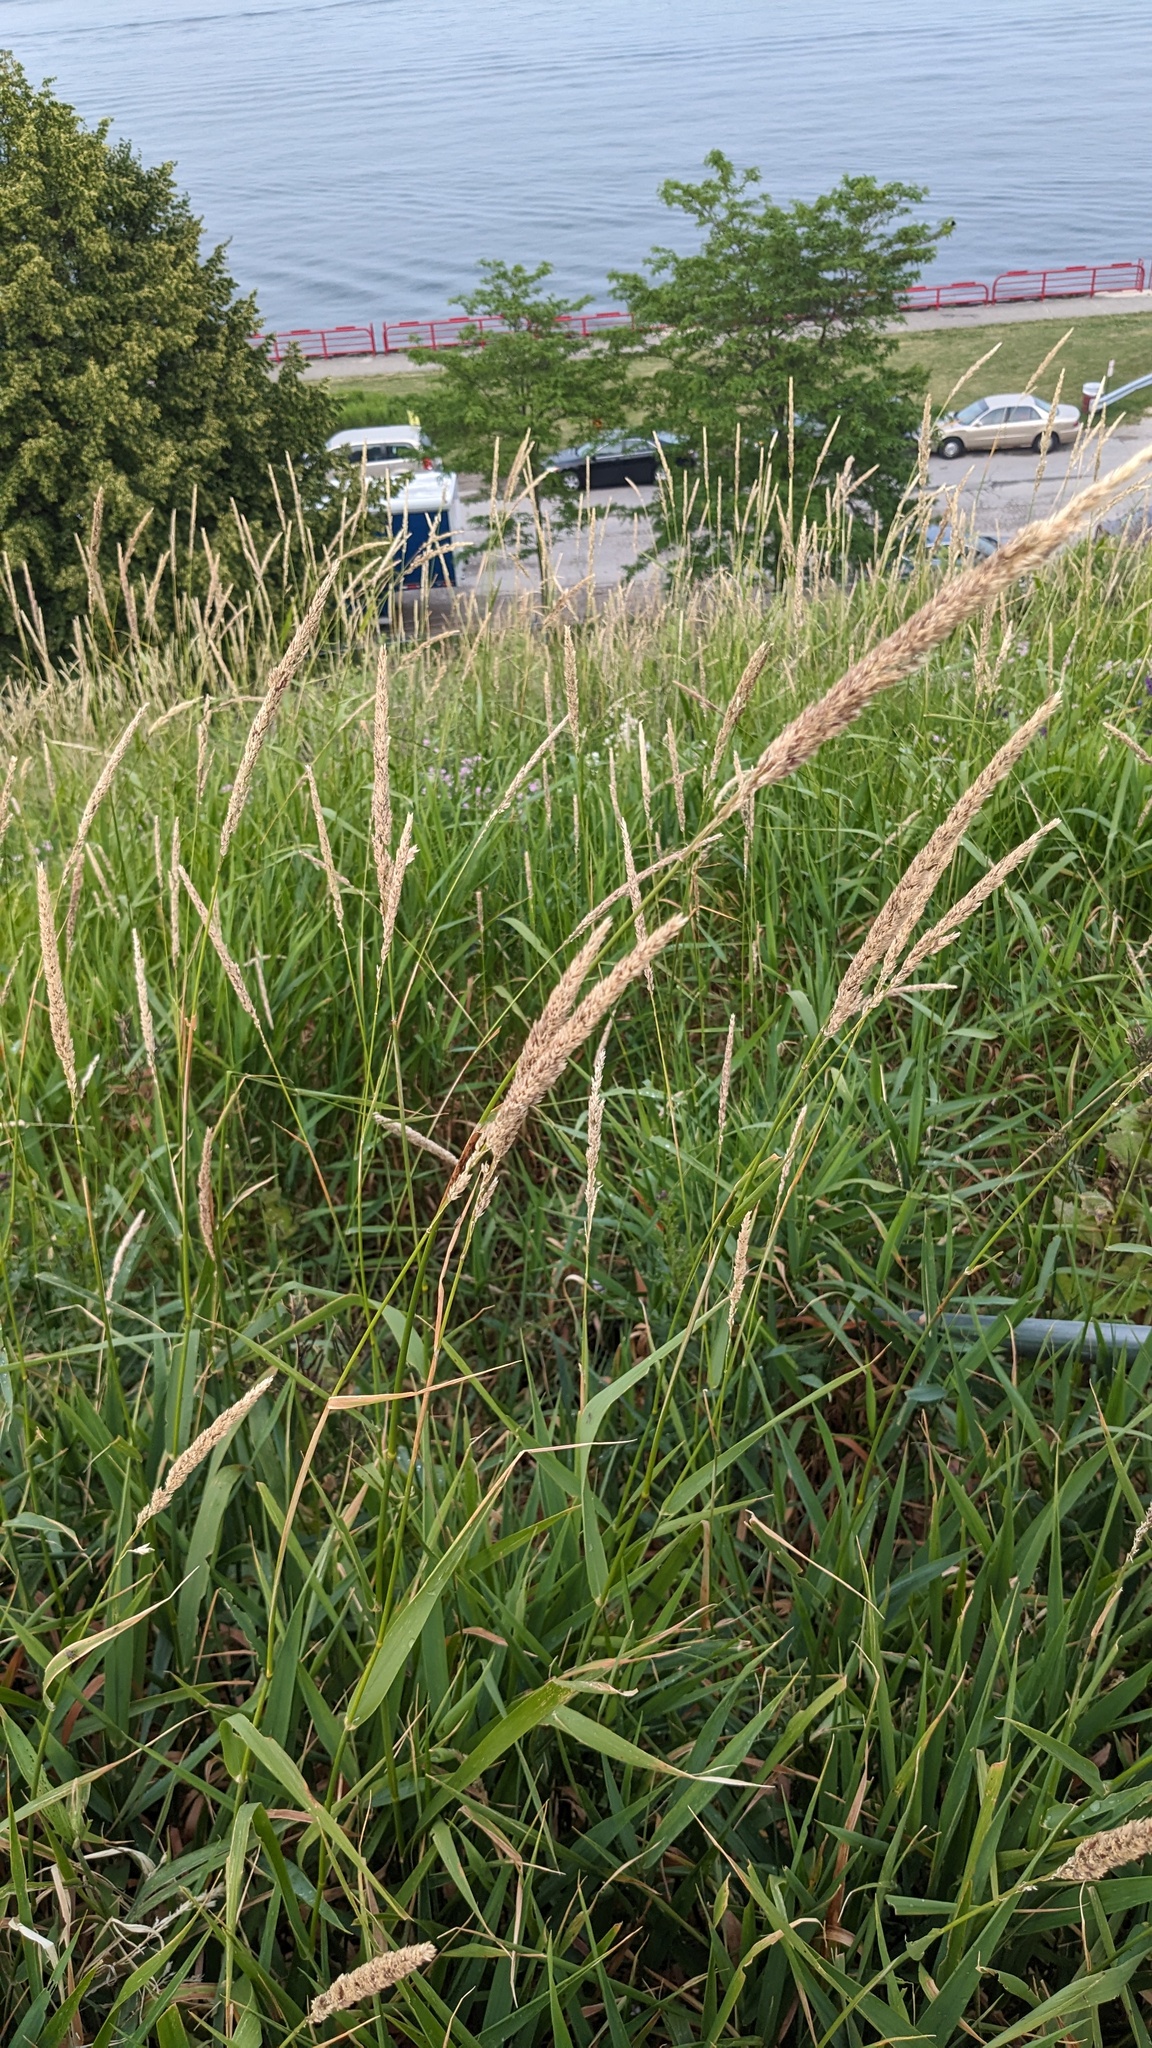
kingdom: Plantae
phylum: Tracheophyta
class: Liliopsida
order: Poales
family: Poaceae
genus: Phalaris
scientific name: Phalaris arundinacea
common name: Reed canary-grass
